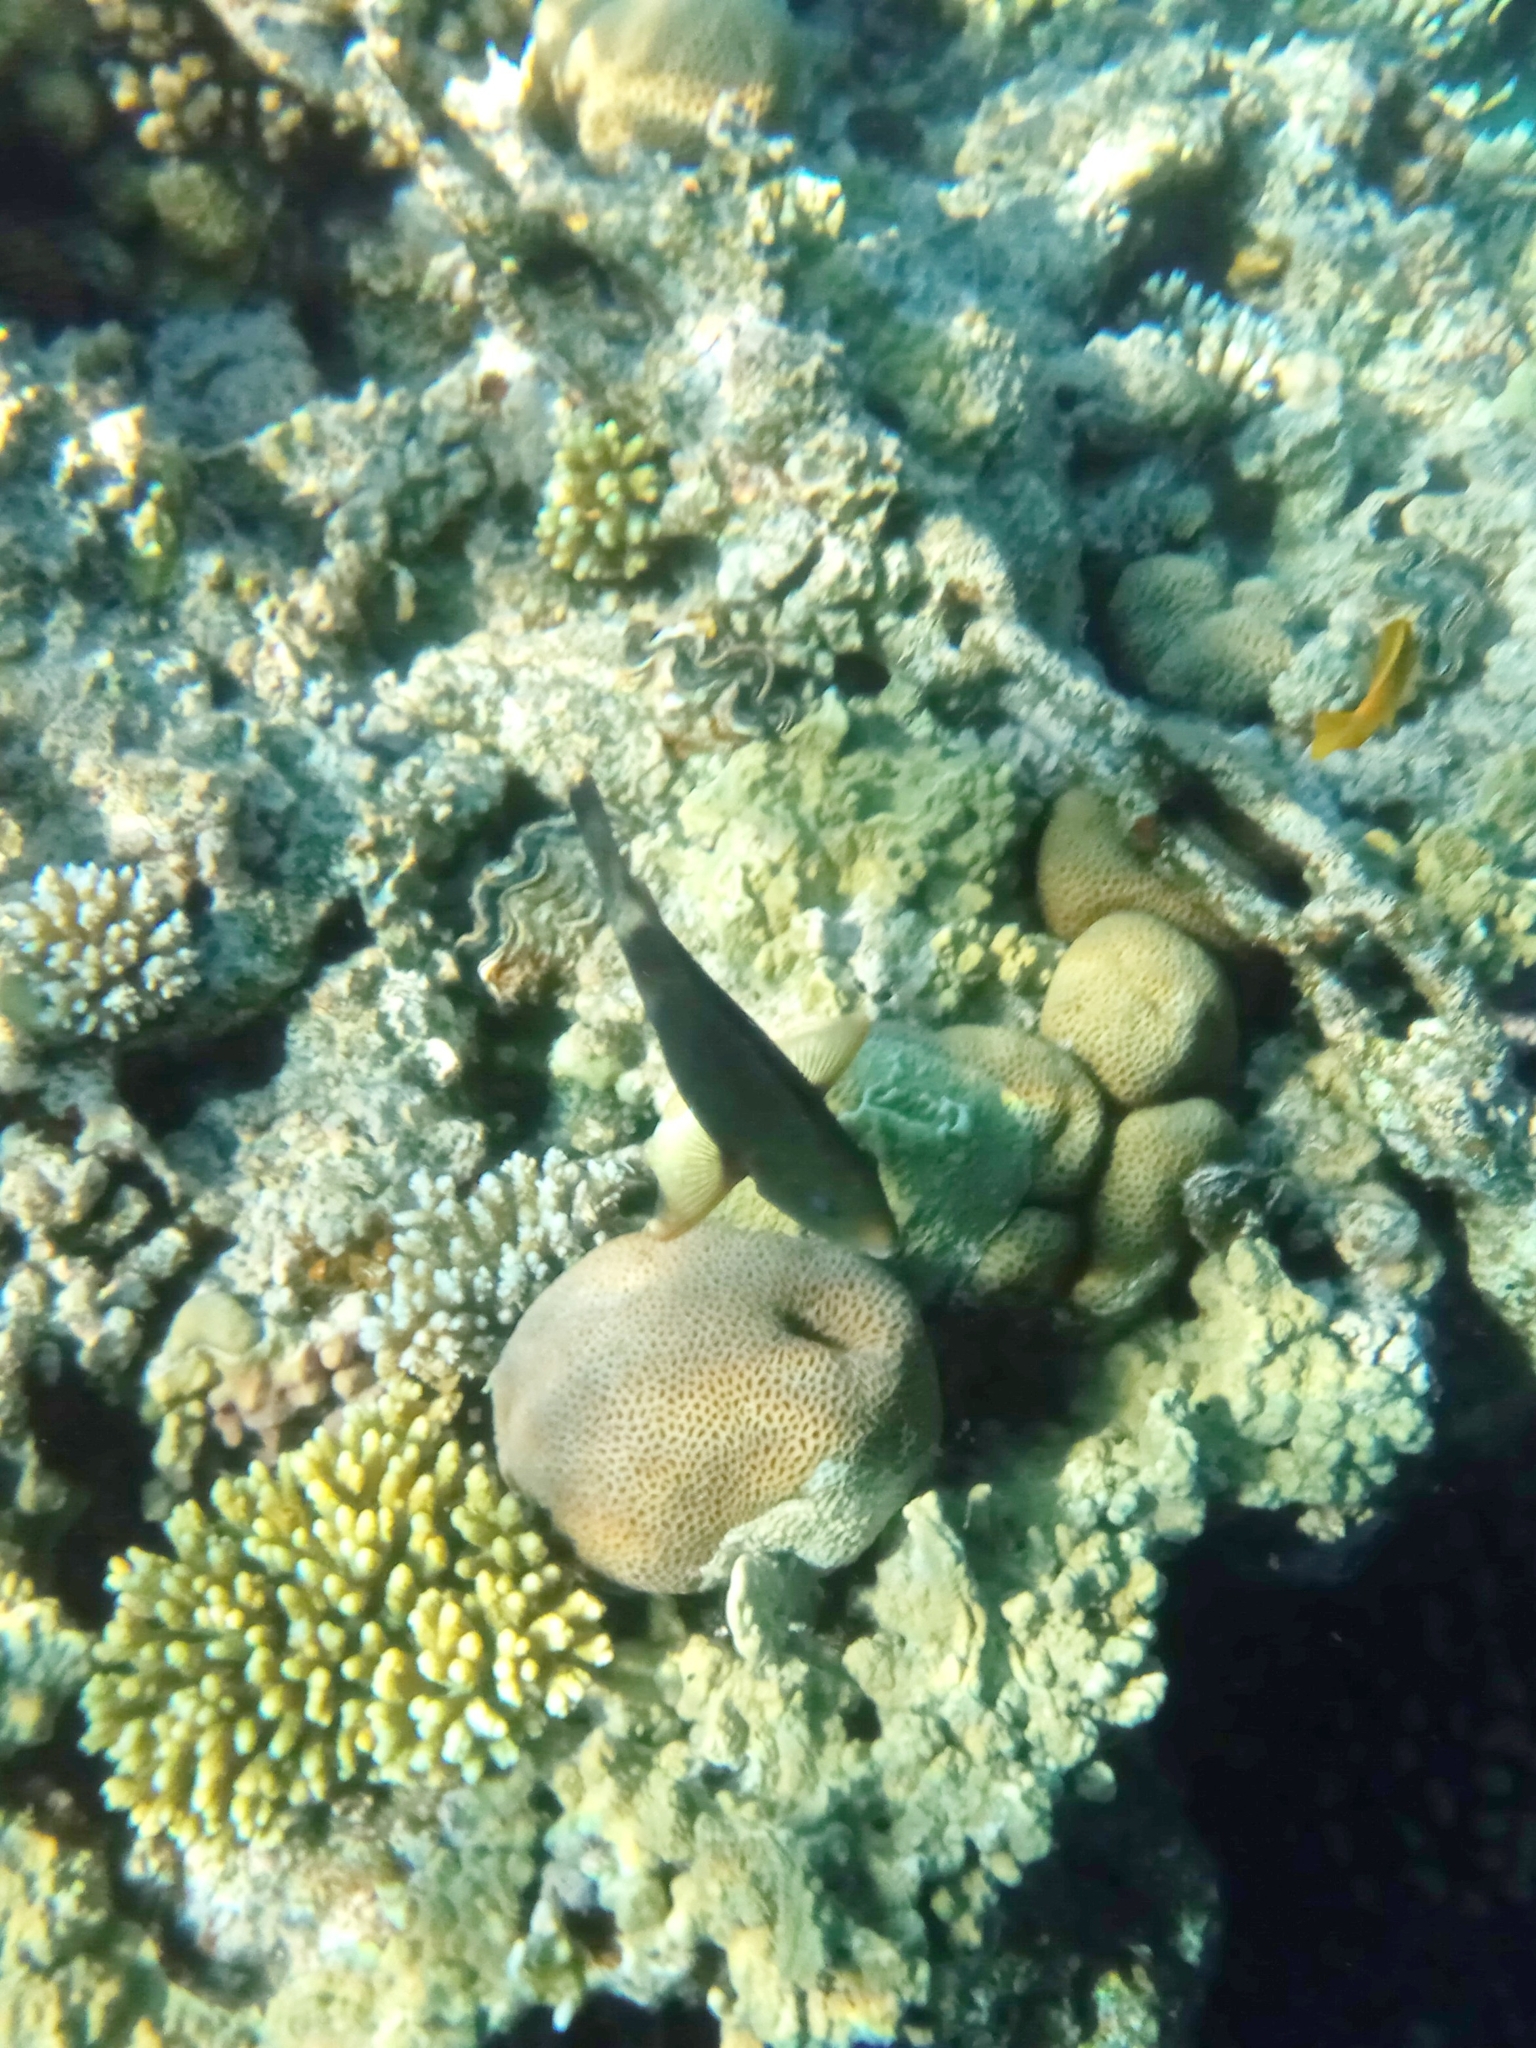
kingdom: Animalia
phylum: Chordata
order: Perciformes
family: Scaridae
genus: Chlorurus
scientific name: Chlorurus sordidus
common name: Bullethead parrotfish
